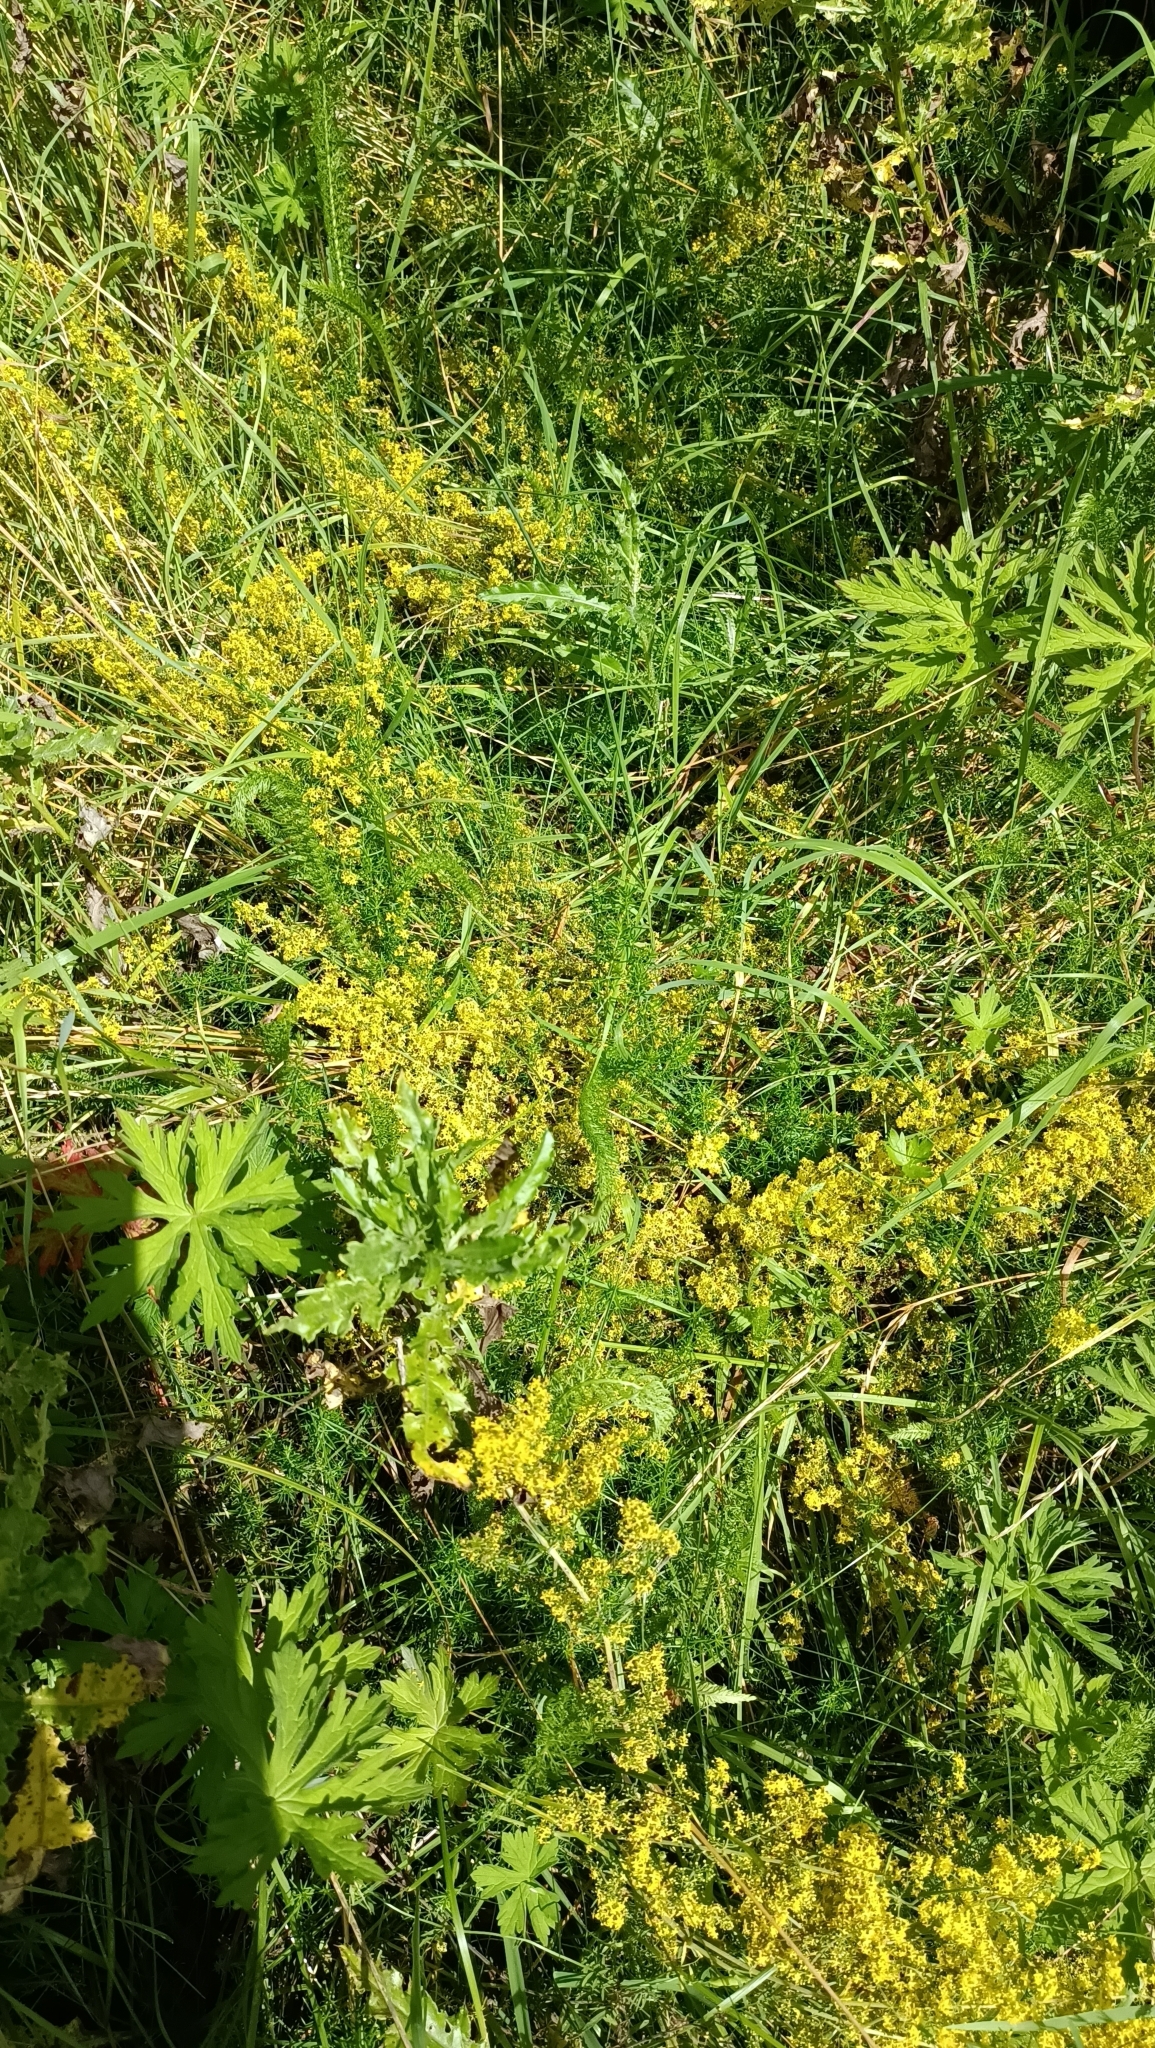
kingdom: Plantae
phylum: Tracheophyta
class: Magnoliopsida
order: Gentianales
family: Rubiaceae
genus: Galium
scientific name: Galium verum
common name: Lady's bedstraw
